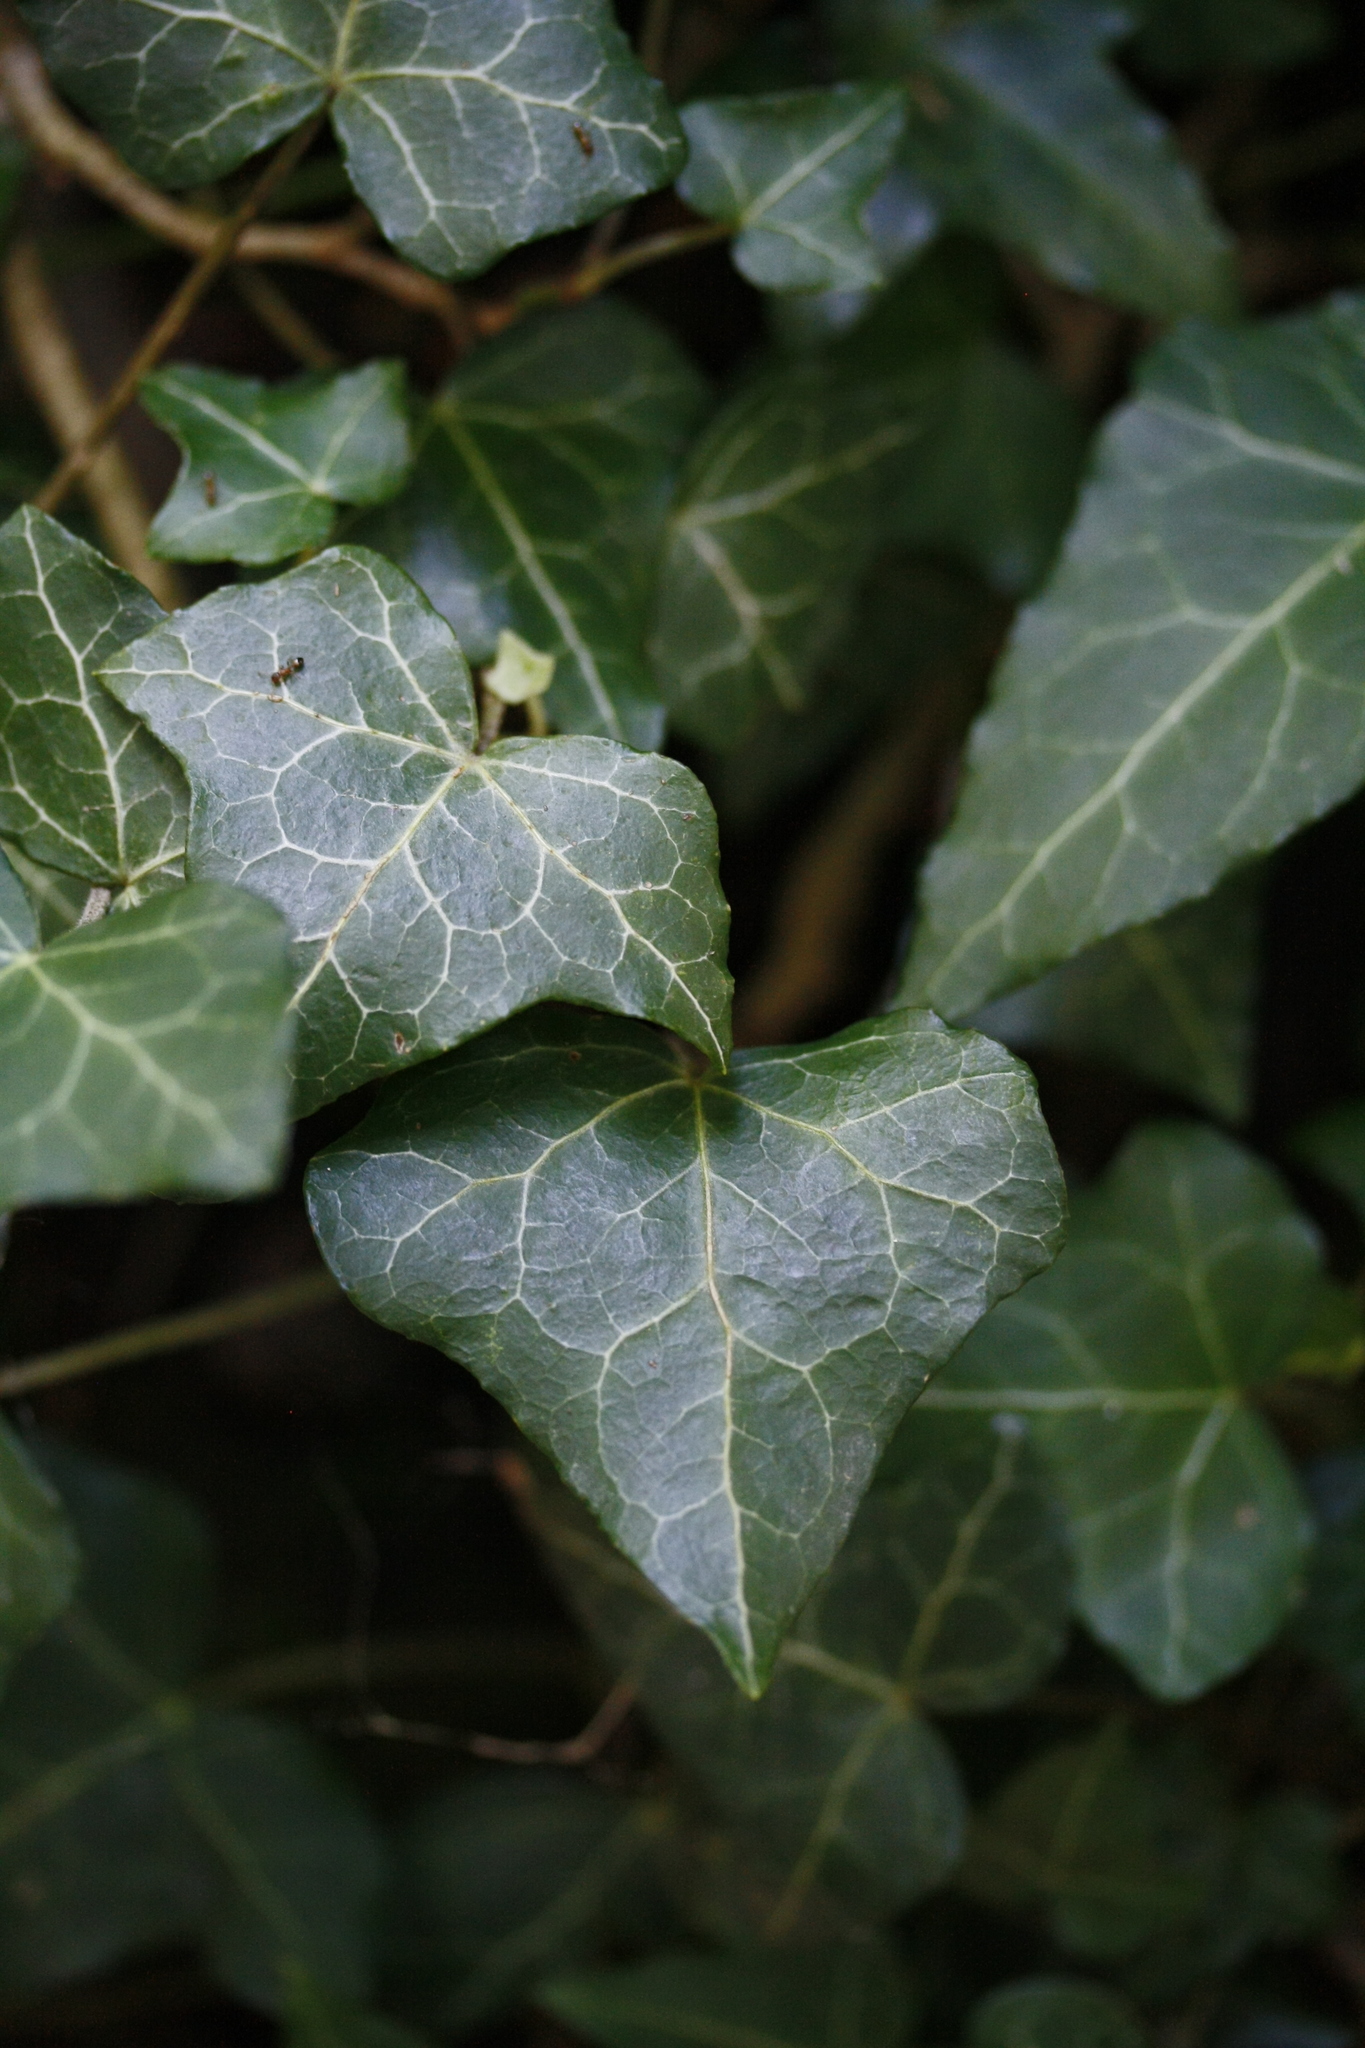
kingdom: Plantae
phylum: Tracheophyta
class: Magnoliopsida
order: Apiales
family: Araliaceae
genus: Hedera
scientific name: Hedera helix
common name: Ivy
